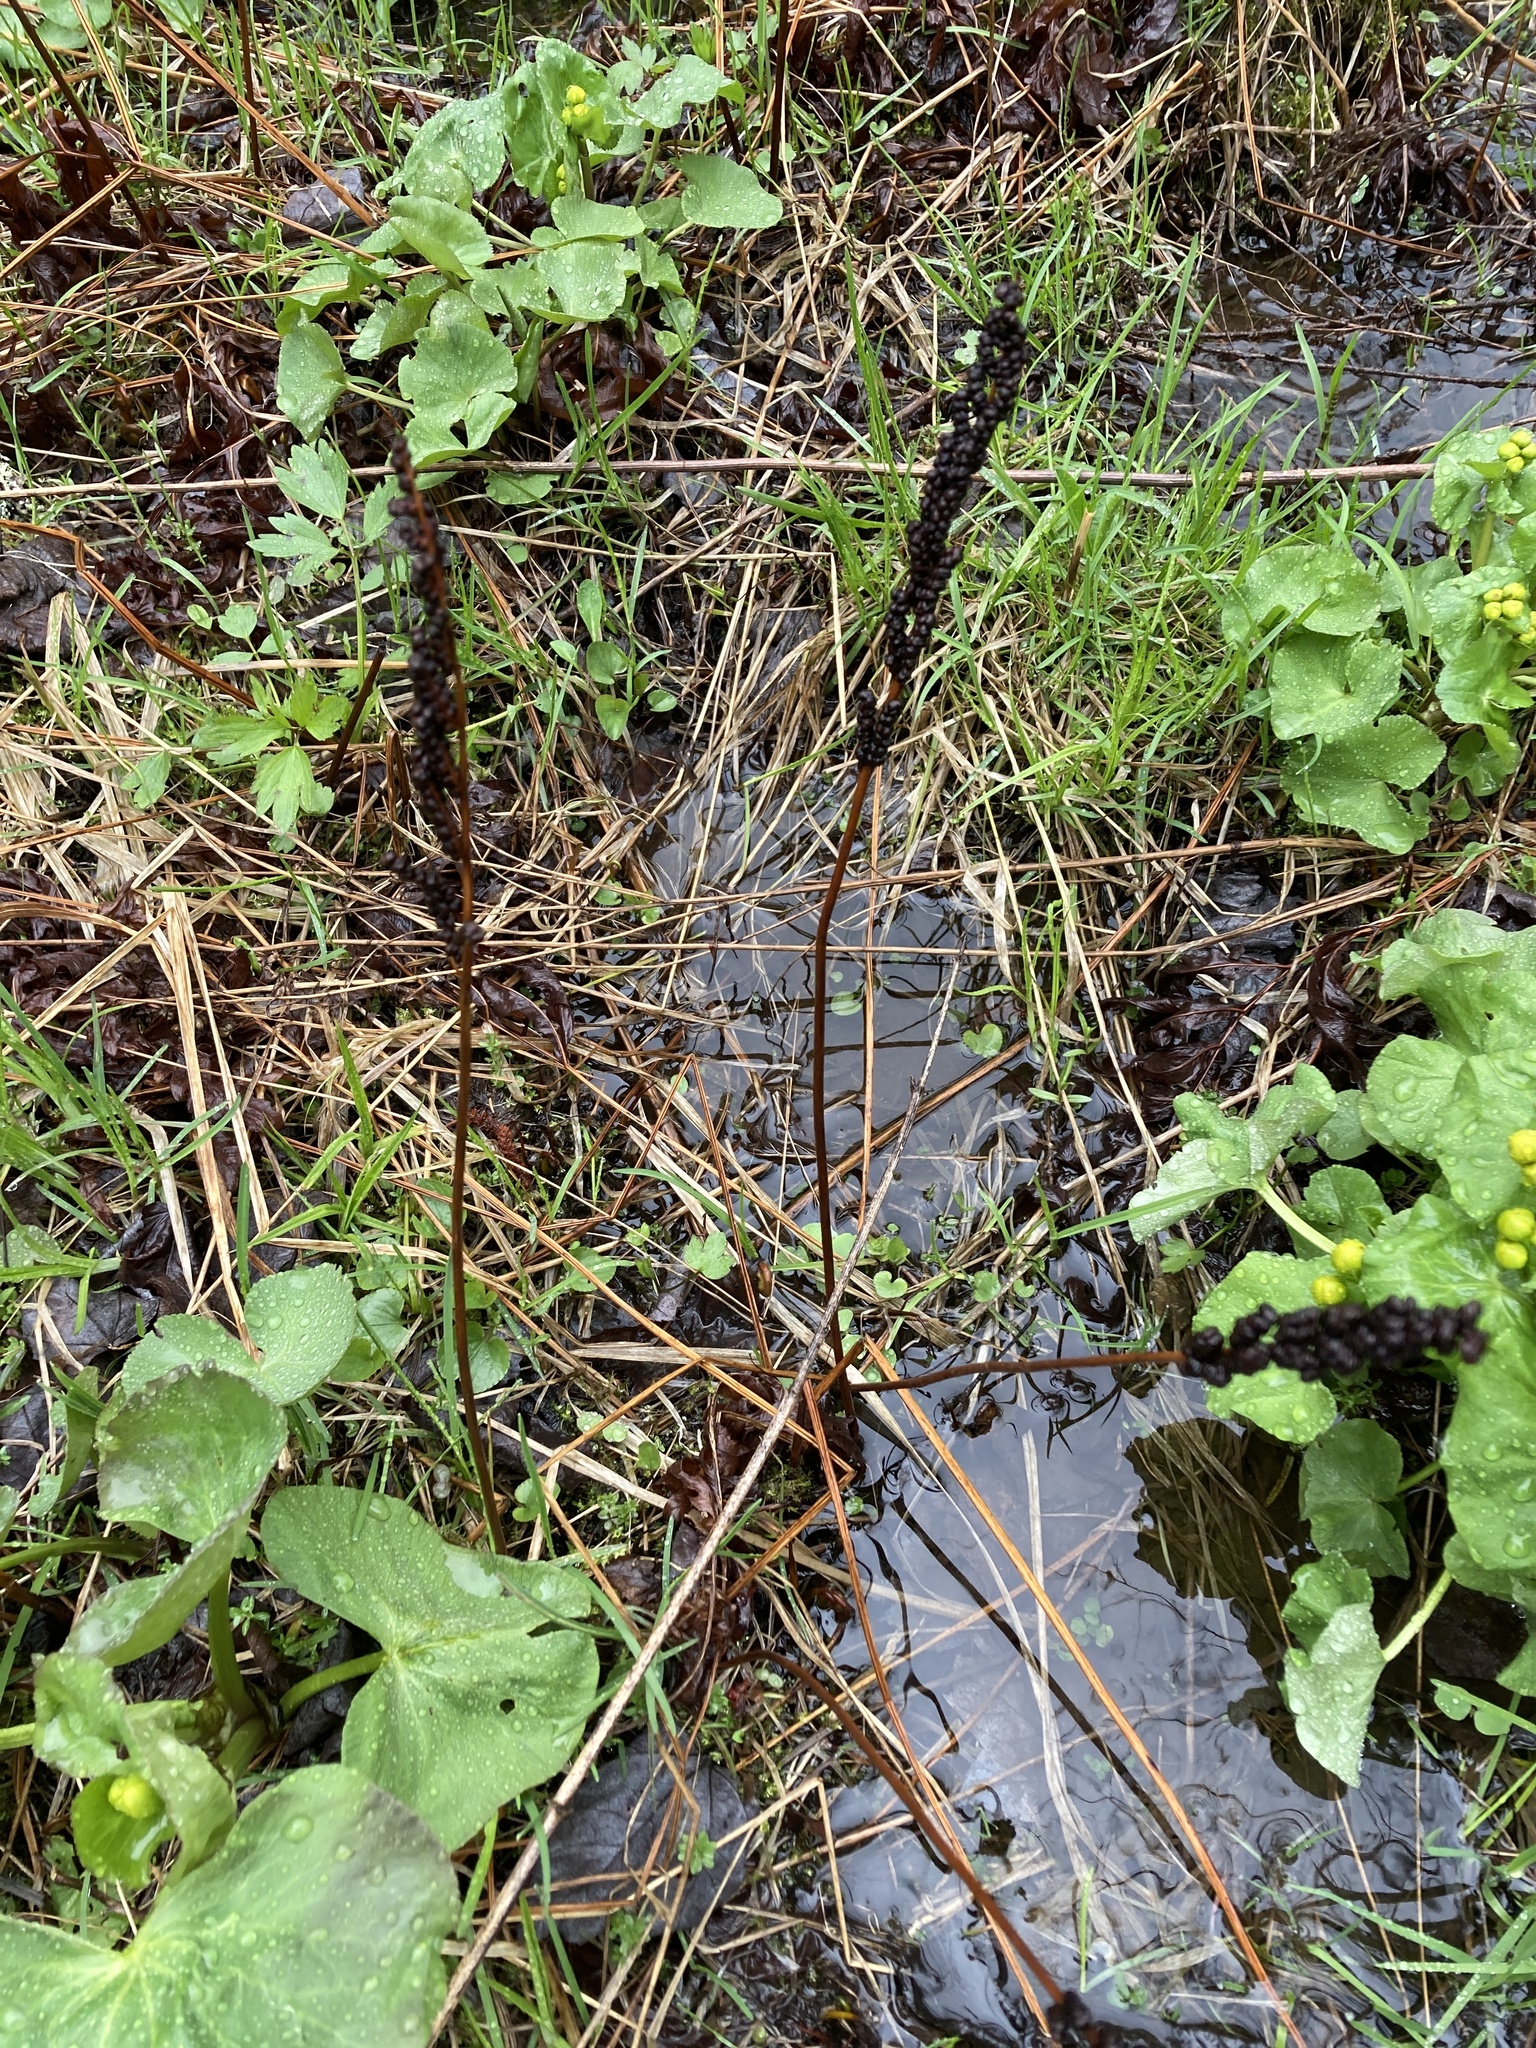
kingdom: Plantae
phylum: Tracheophyta
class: Polypodiopsida
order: Polypodiales
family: Onocleaceae
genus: Onoclea
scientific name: Onoclea sensibilis
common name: Sensitive fern
